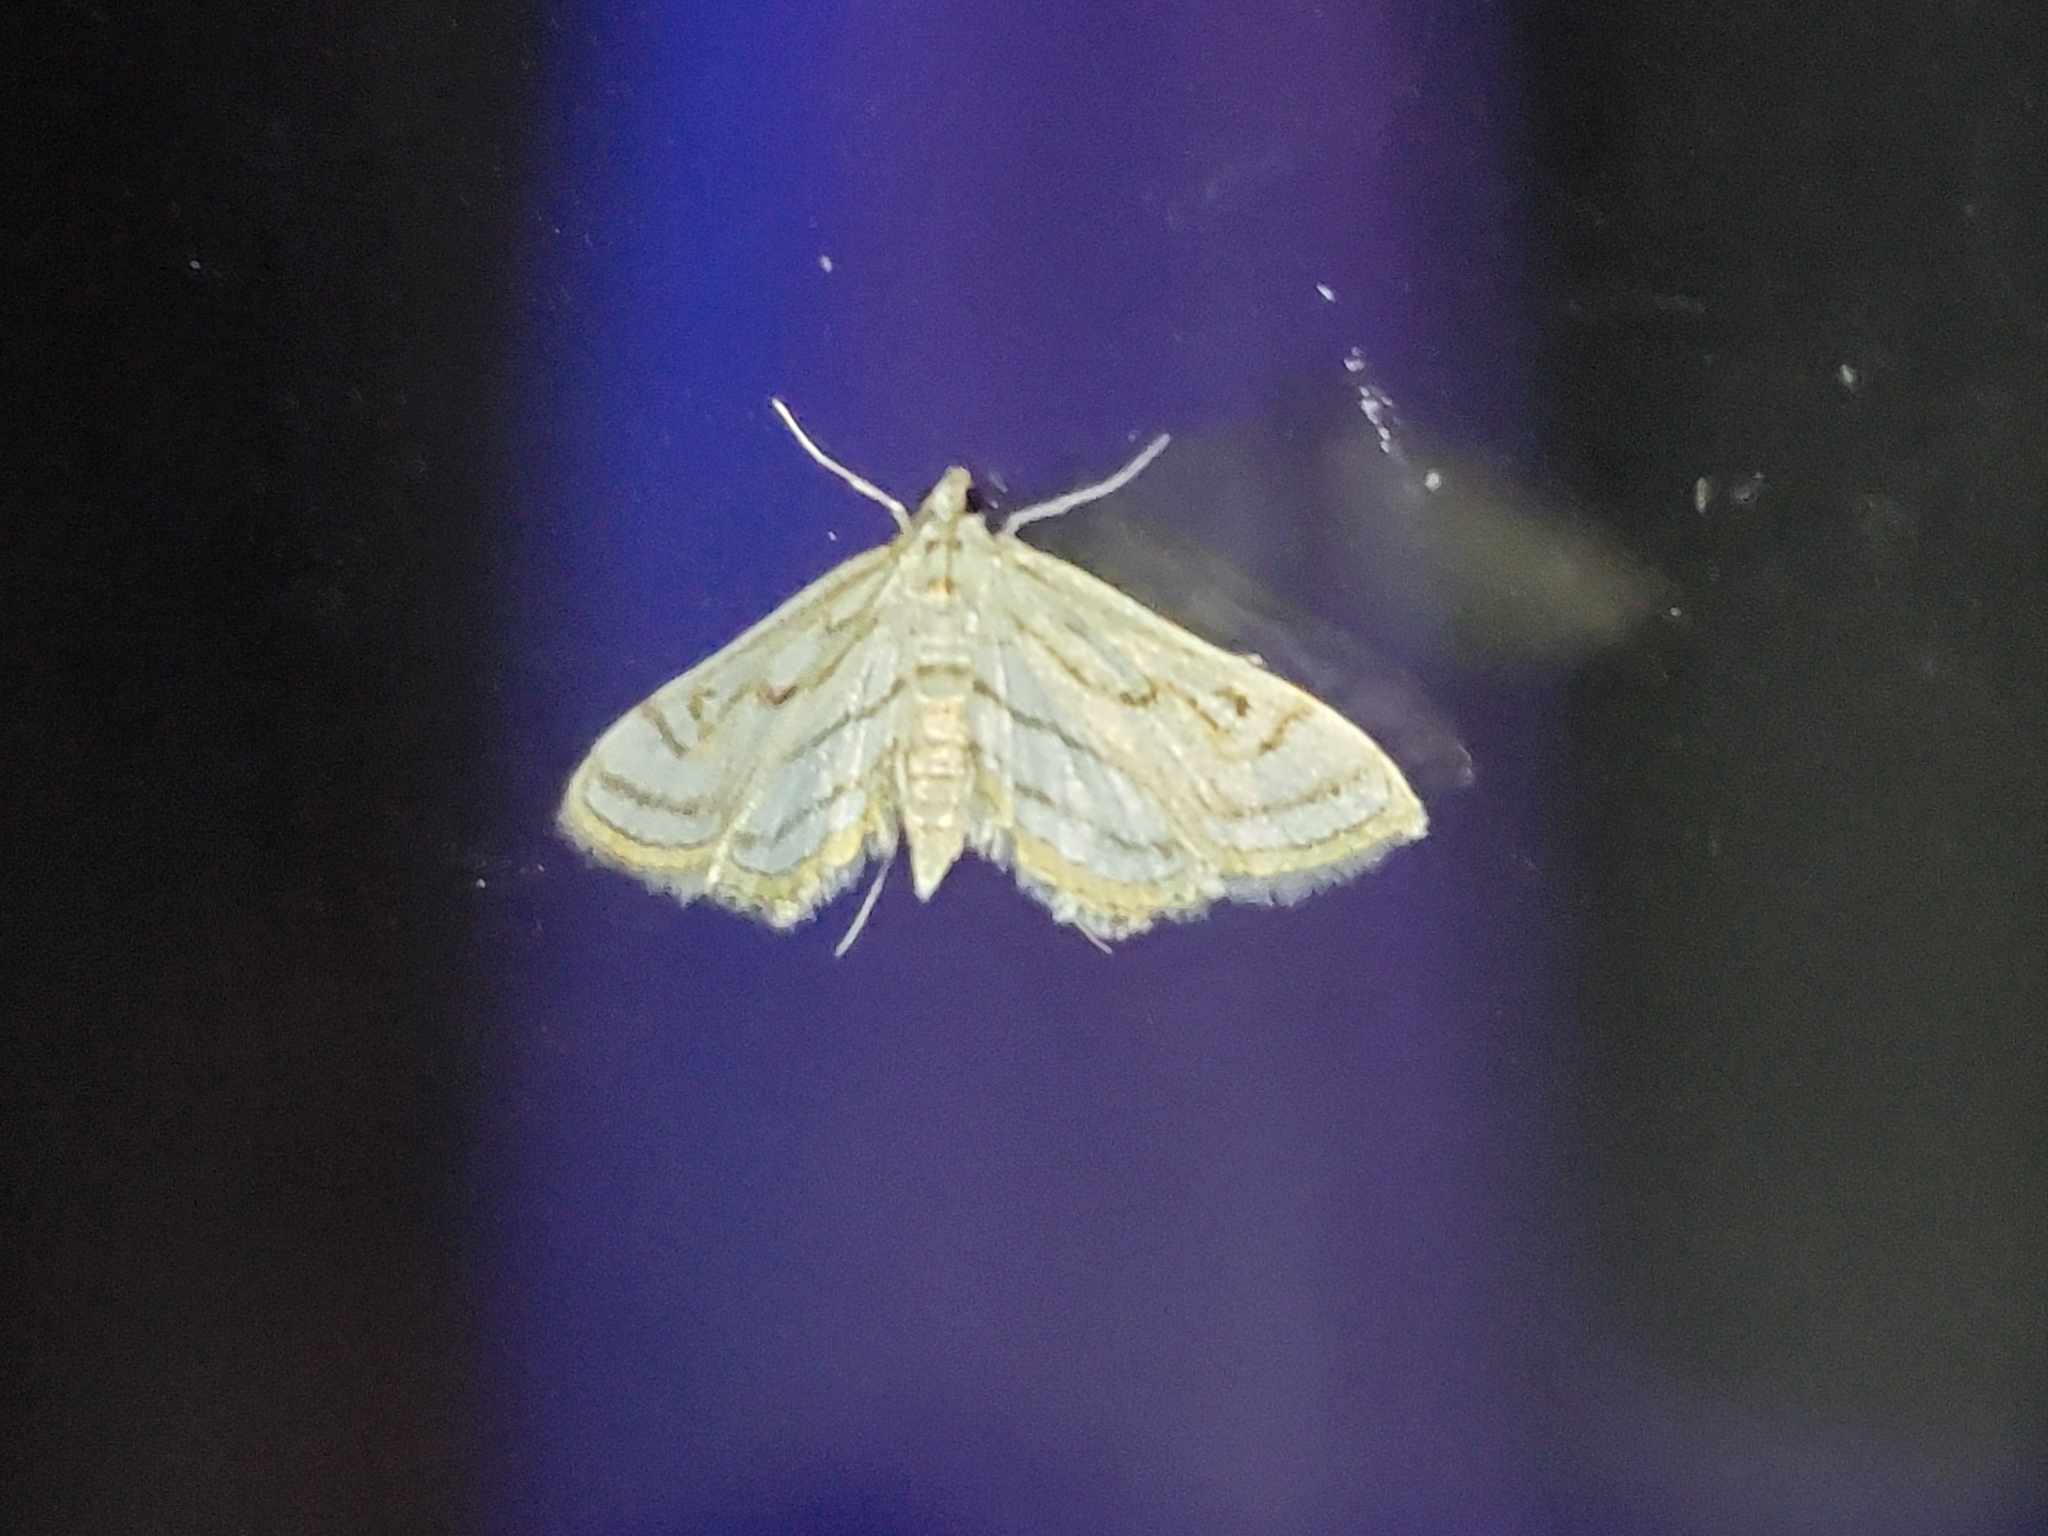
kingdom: Animalia
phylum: Arthropoda
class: Insecta
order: Lepidoptera
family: Crambidae
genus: Parapoynx
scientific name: Parapoynx badiusalis
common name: Chestnut-marked pondweed moth
